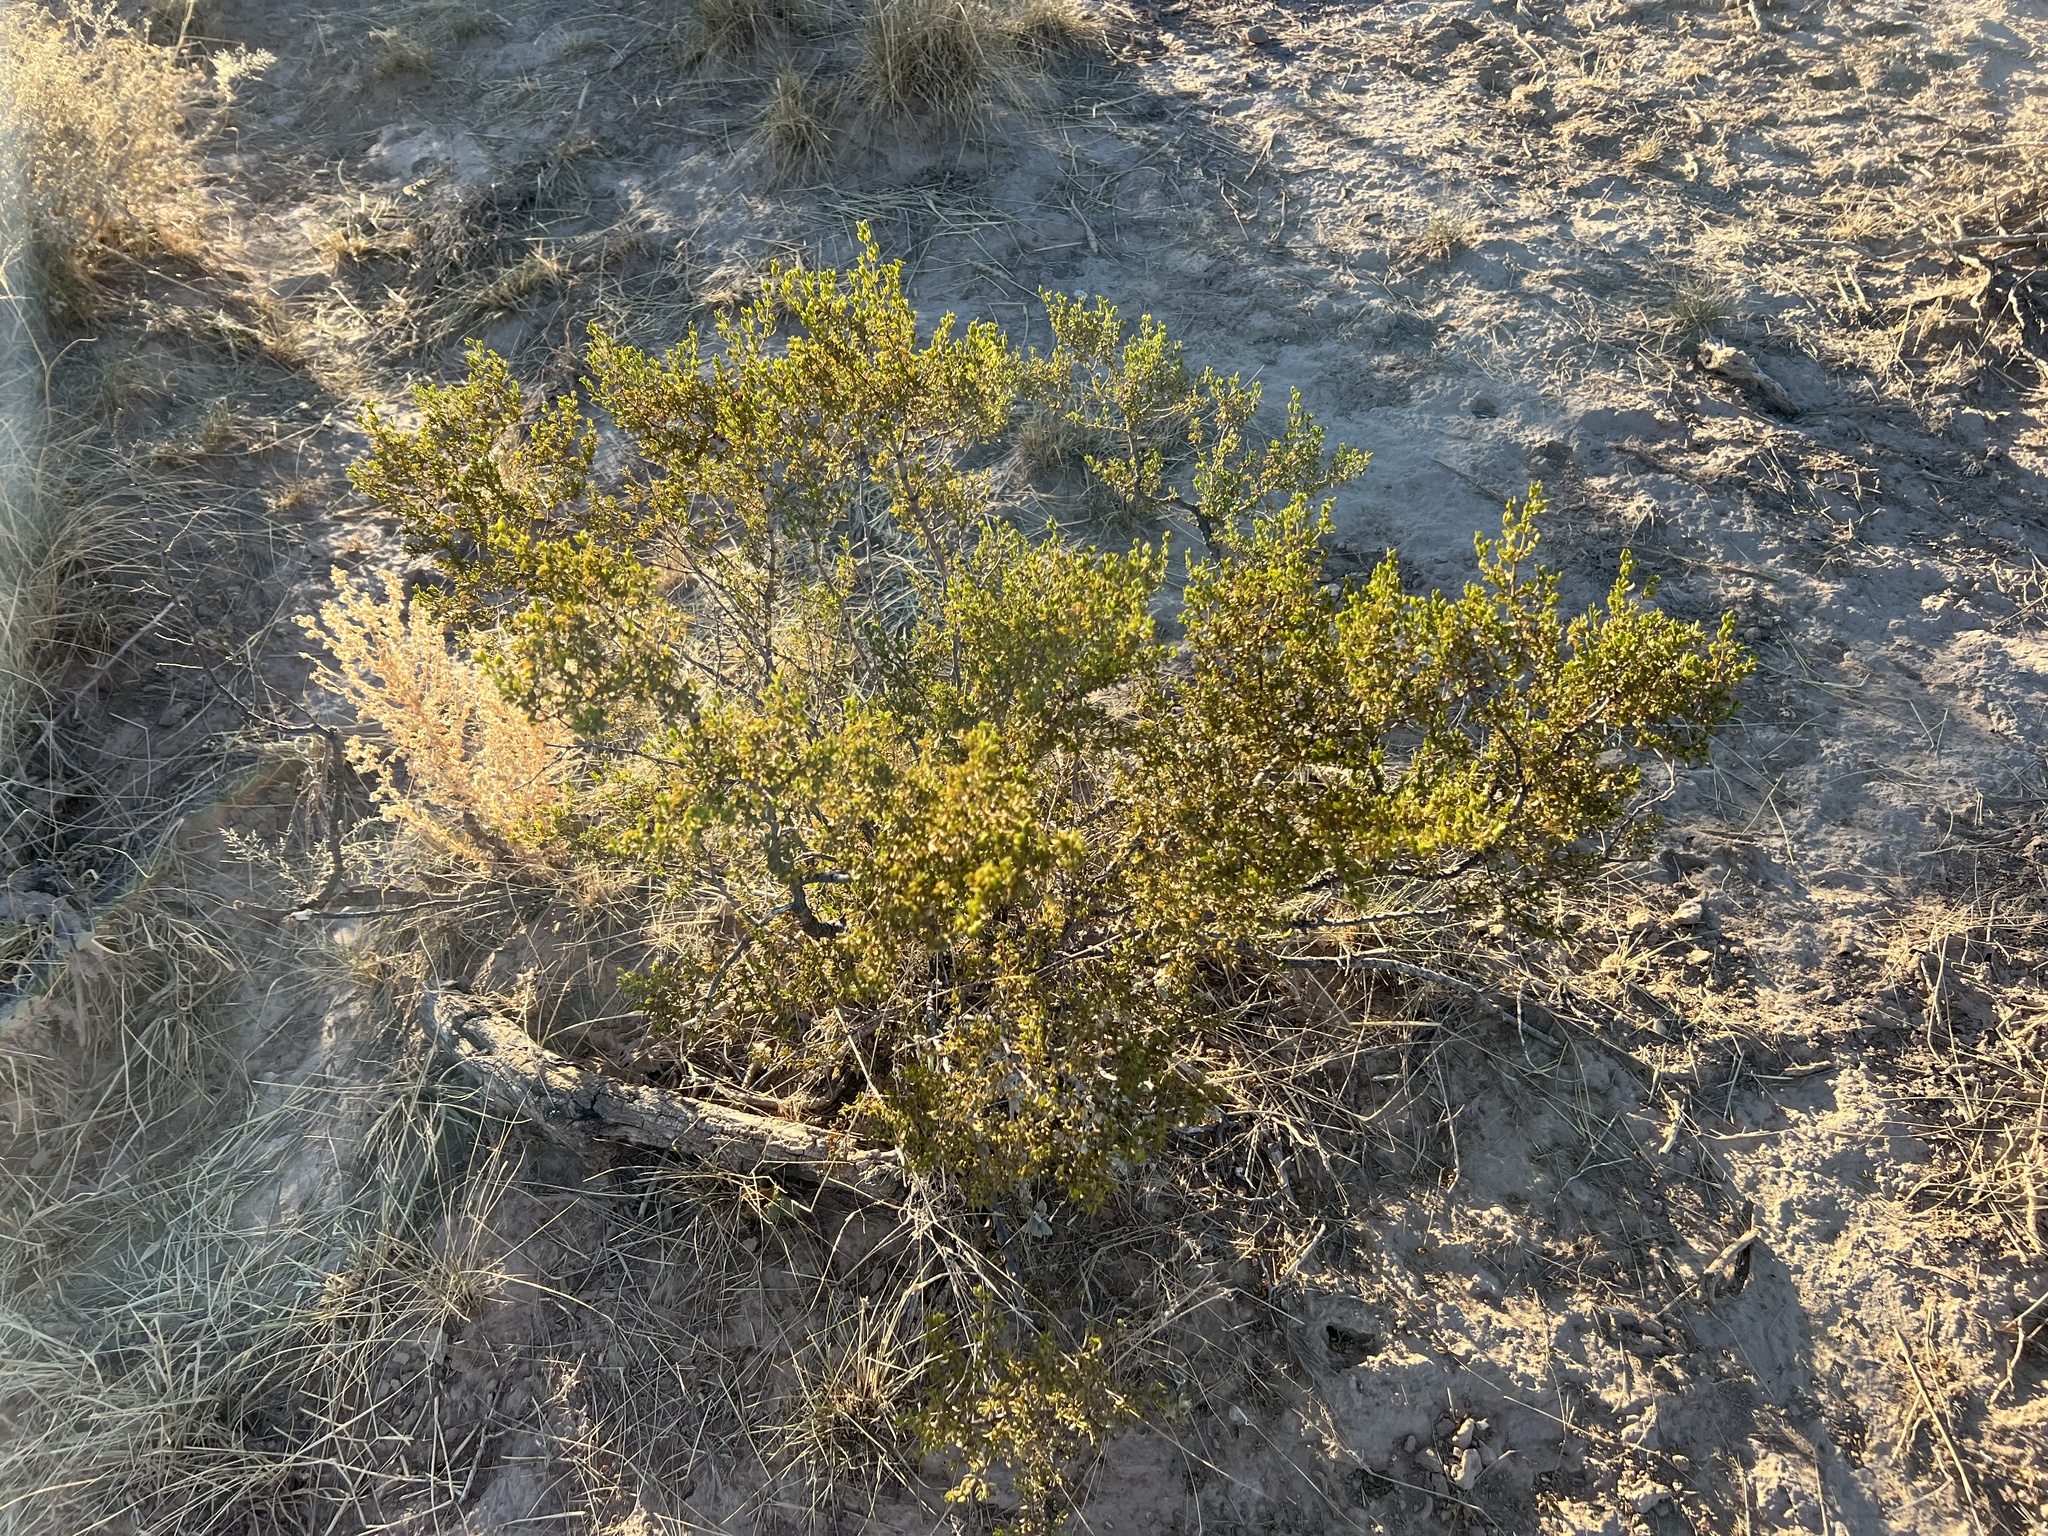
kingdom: Plantae
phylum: Tracheophyta
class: Magnoliopsida
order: Zygophyllales
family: Zygophyllaceae
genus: Larrea
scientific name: Larrea tridentata
